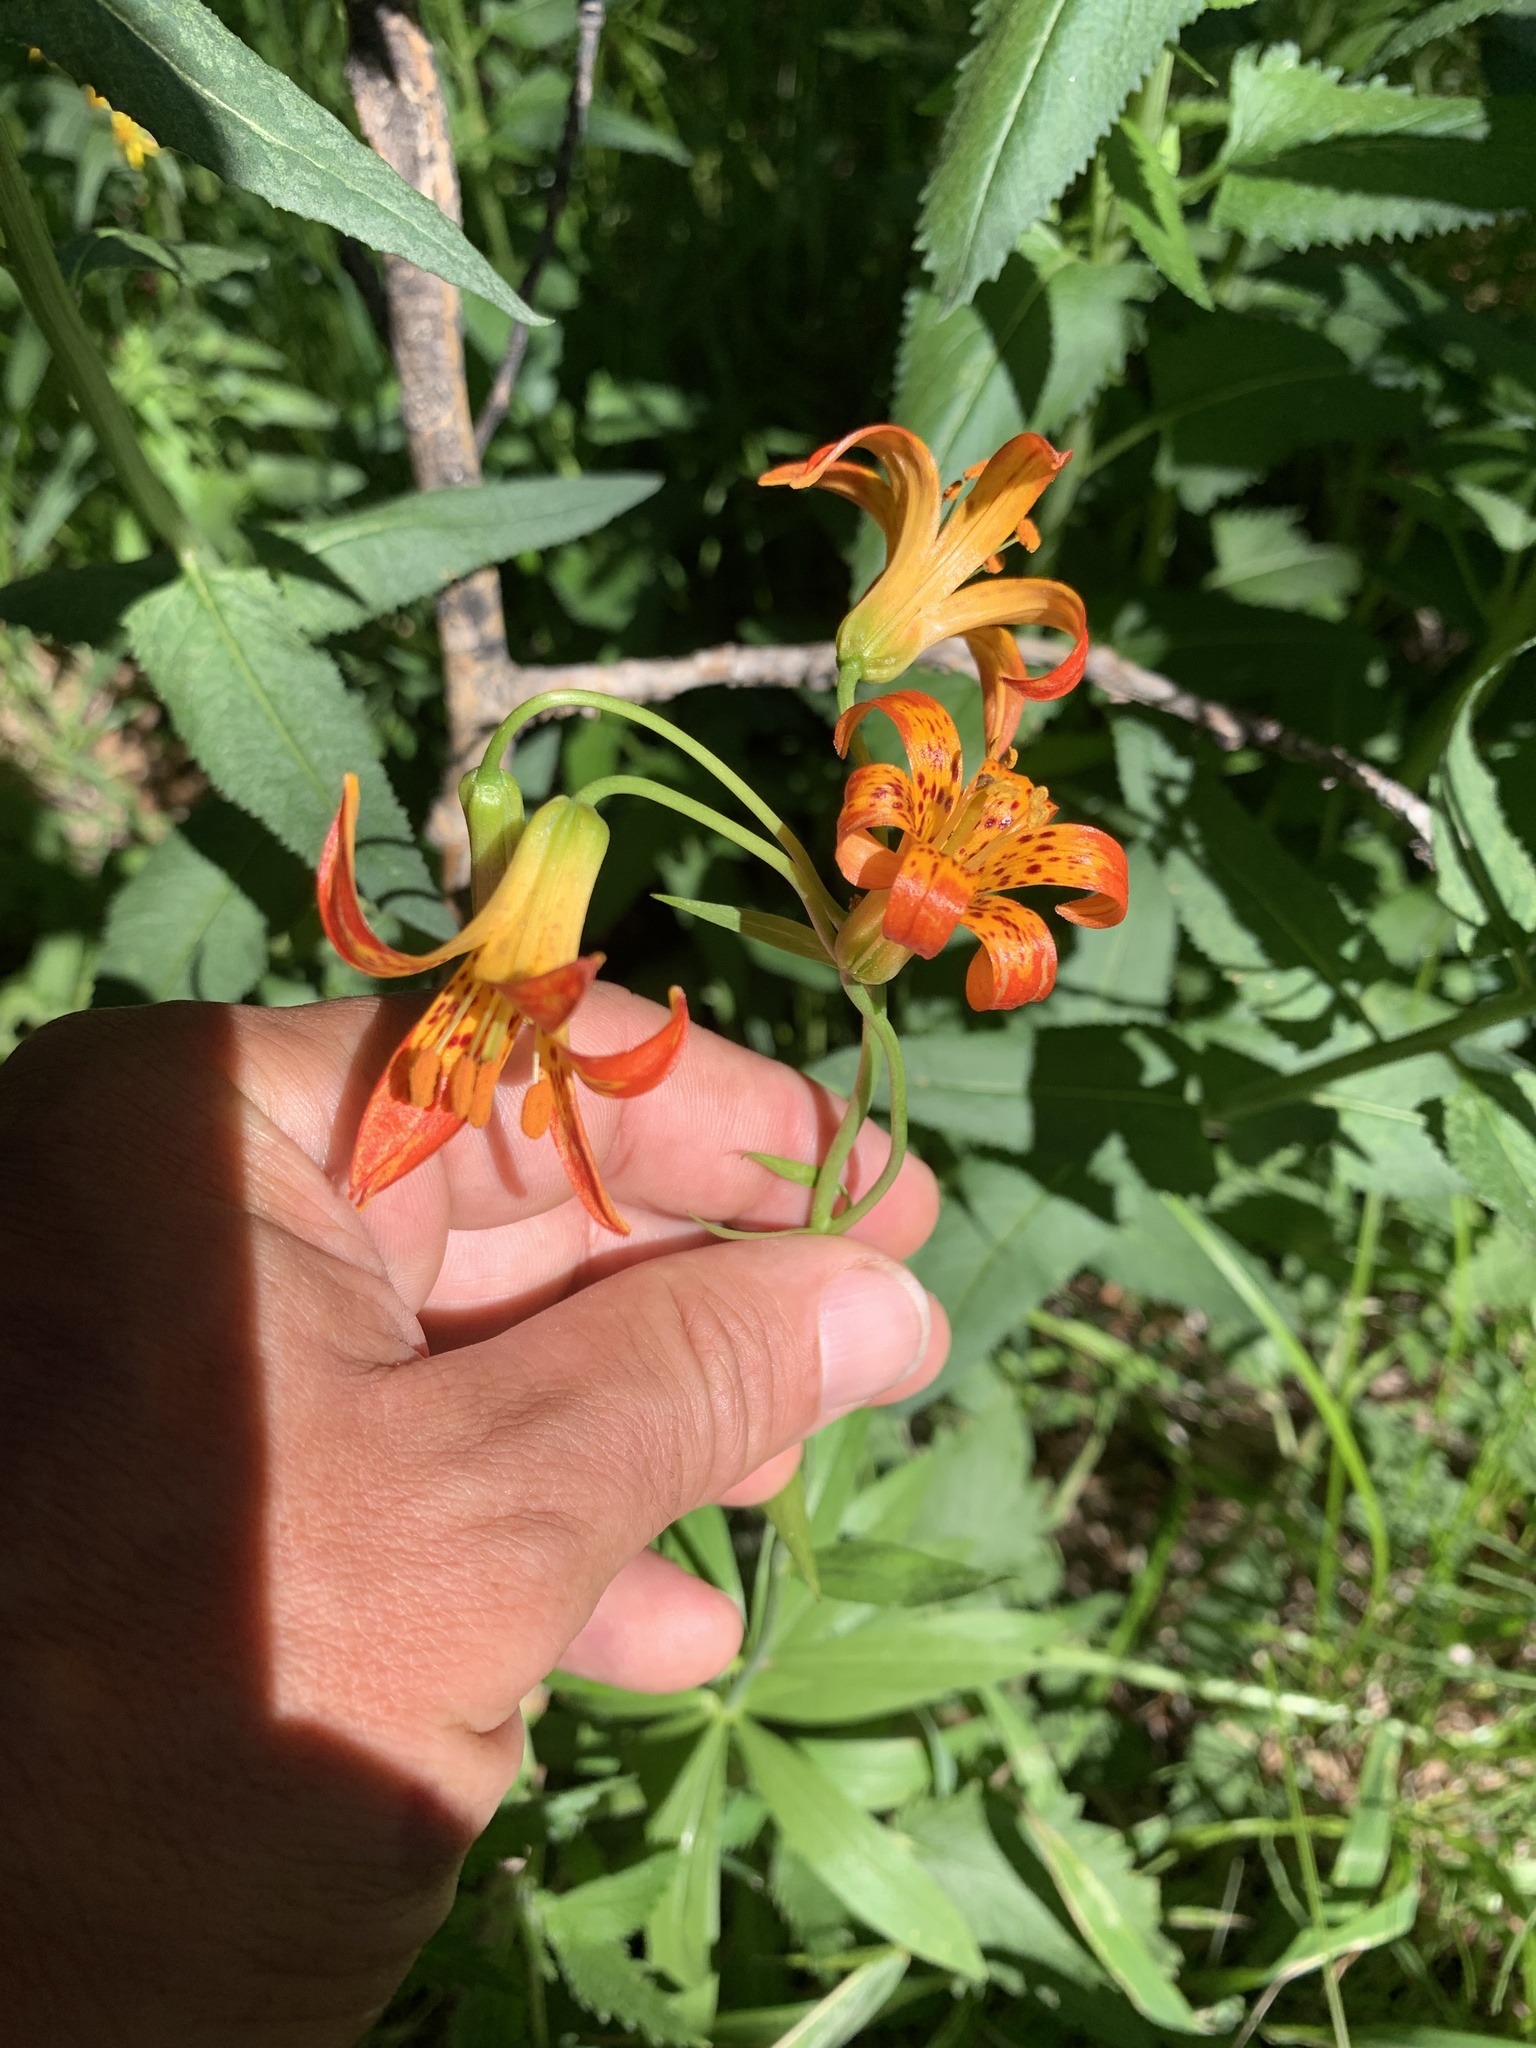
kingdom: Plantae
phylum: Tracheophyta
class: Liliopsida
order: Liliales
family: Liliaceae
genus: Lilium
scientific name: Lilium parvum
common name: Alpine lily
